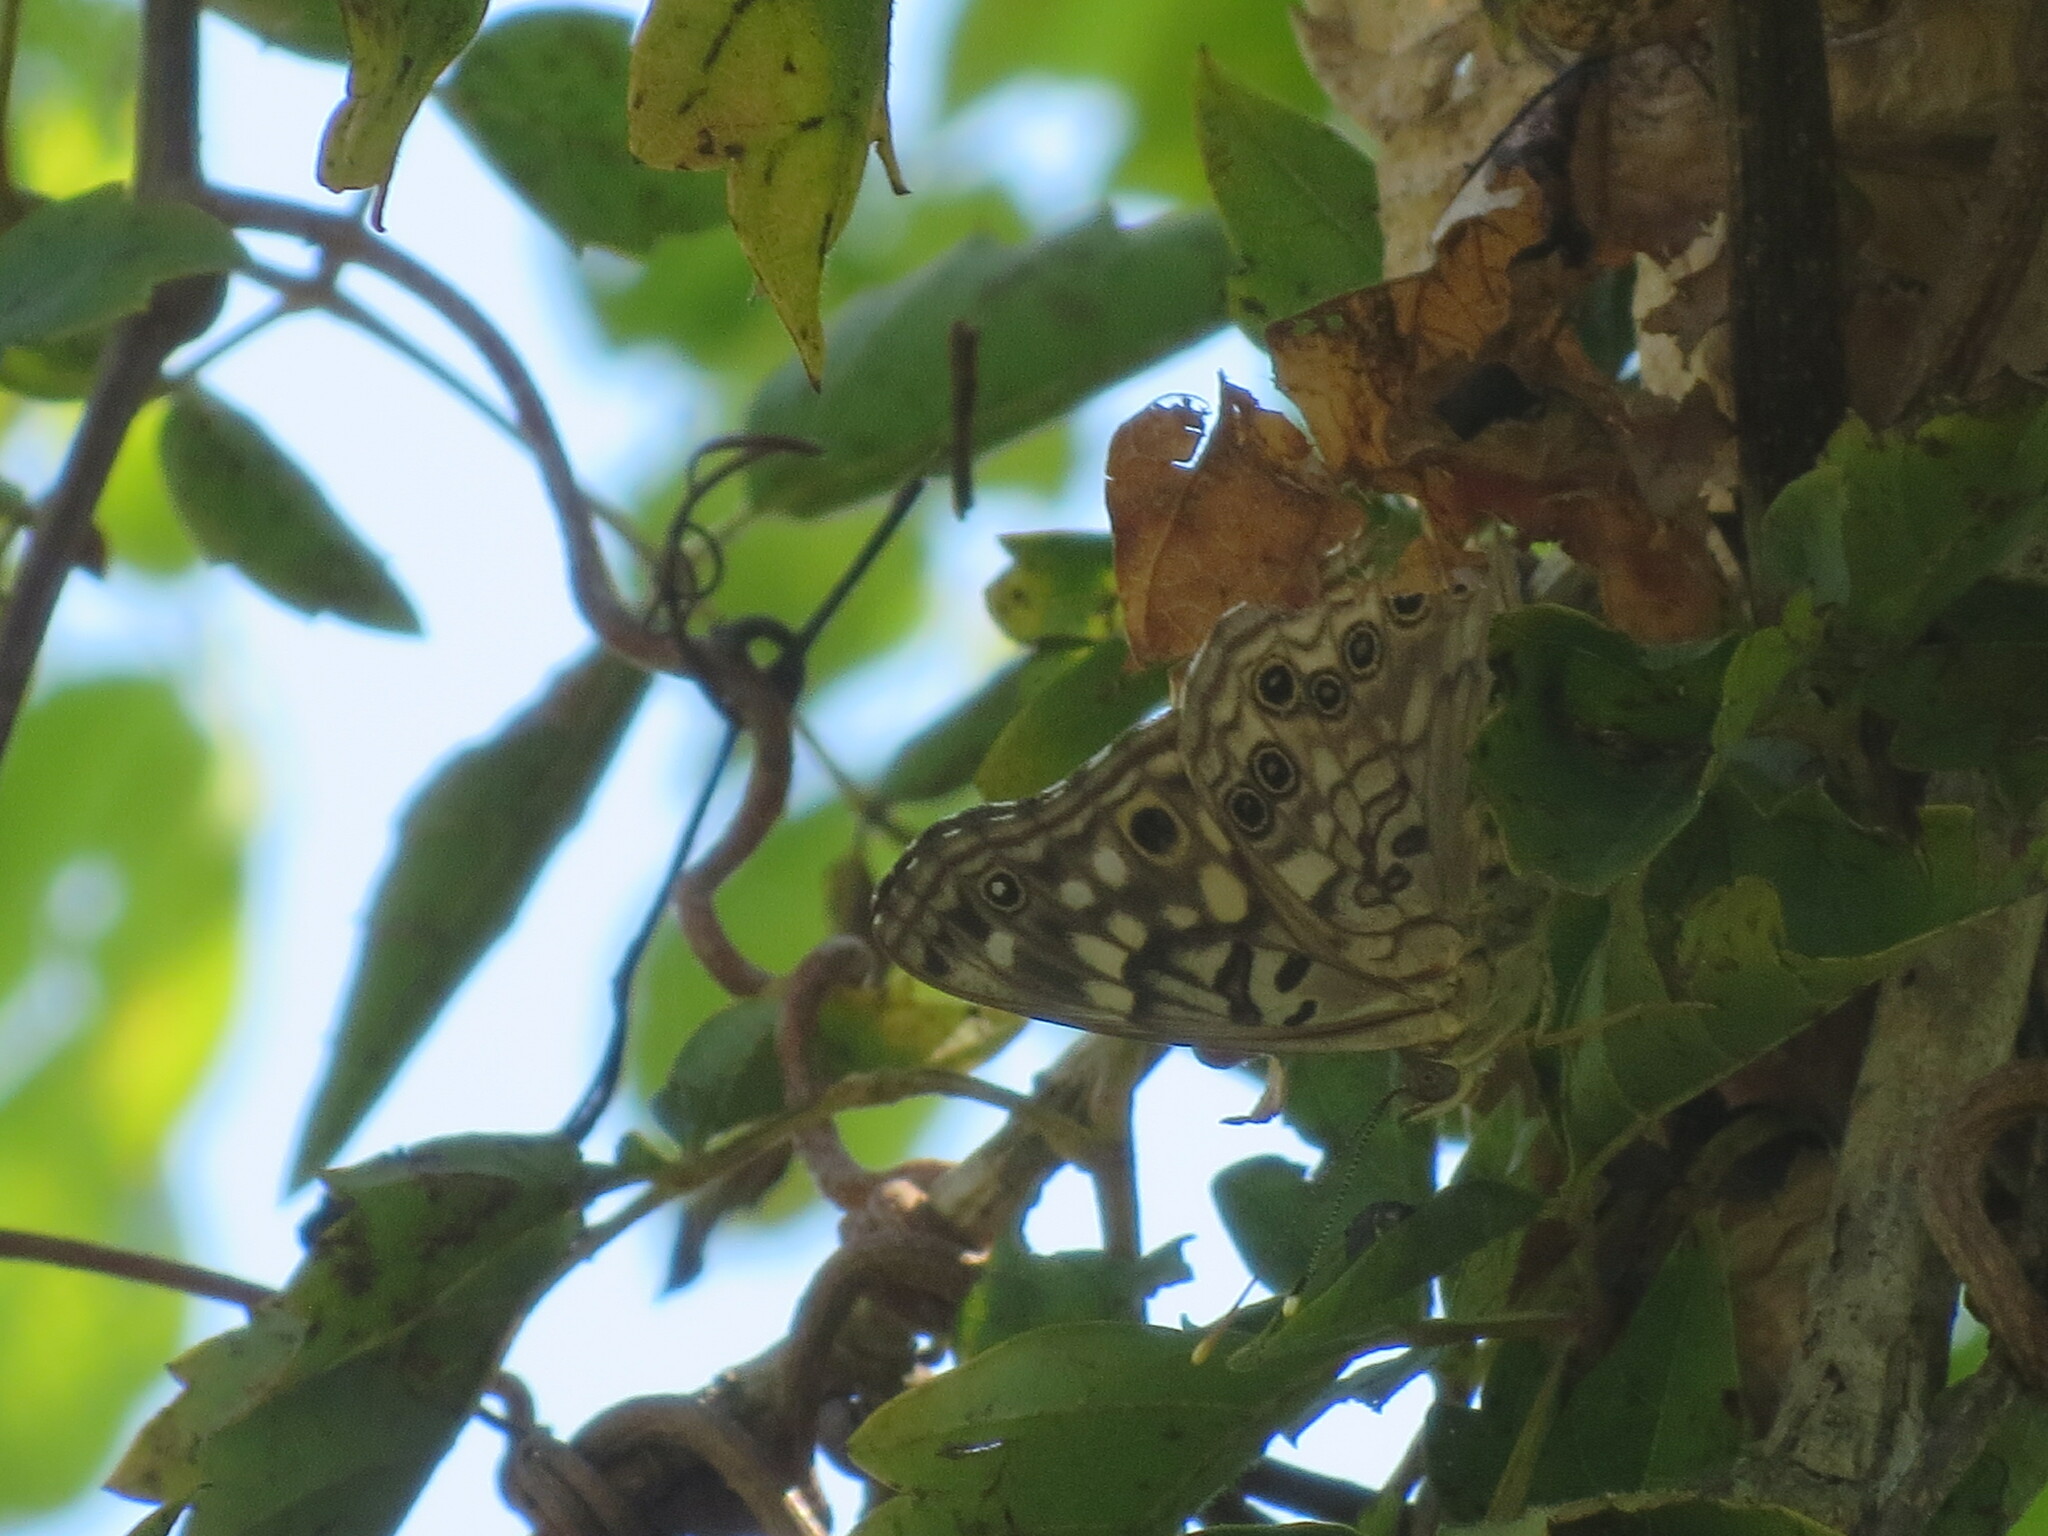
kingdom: Animalia
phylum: Arthropoda
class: Insecta
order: Lepidoptera
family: Nymphalidae
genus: Asterocampa
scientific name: Asterocampa celtis
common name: Hackberry emperor
